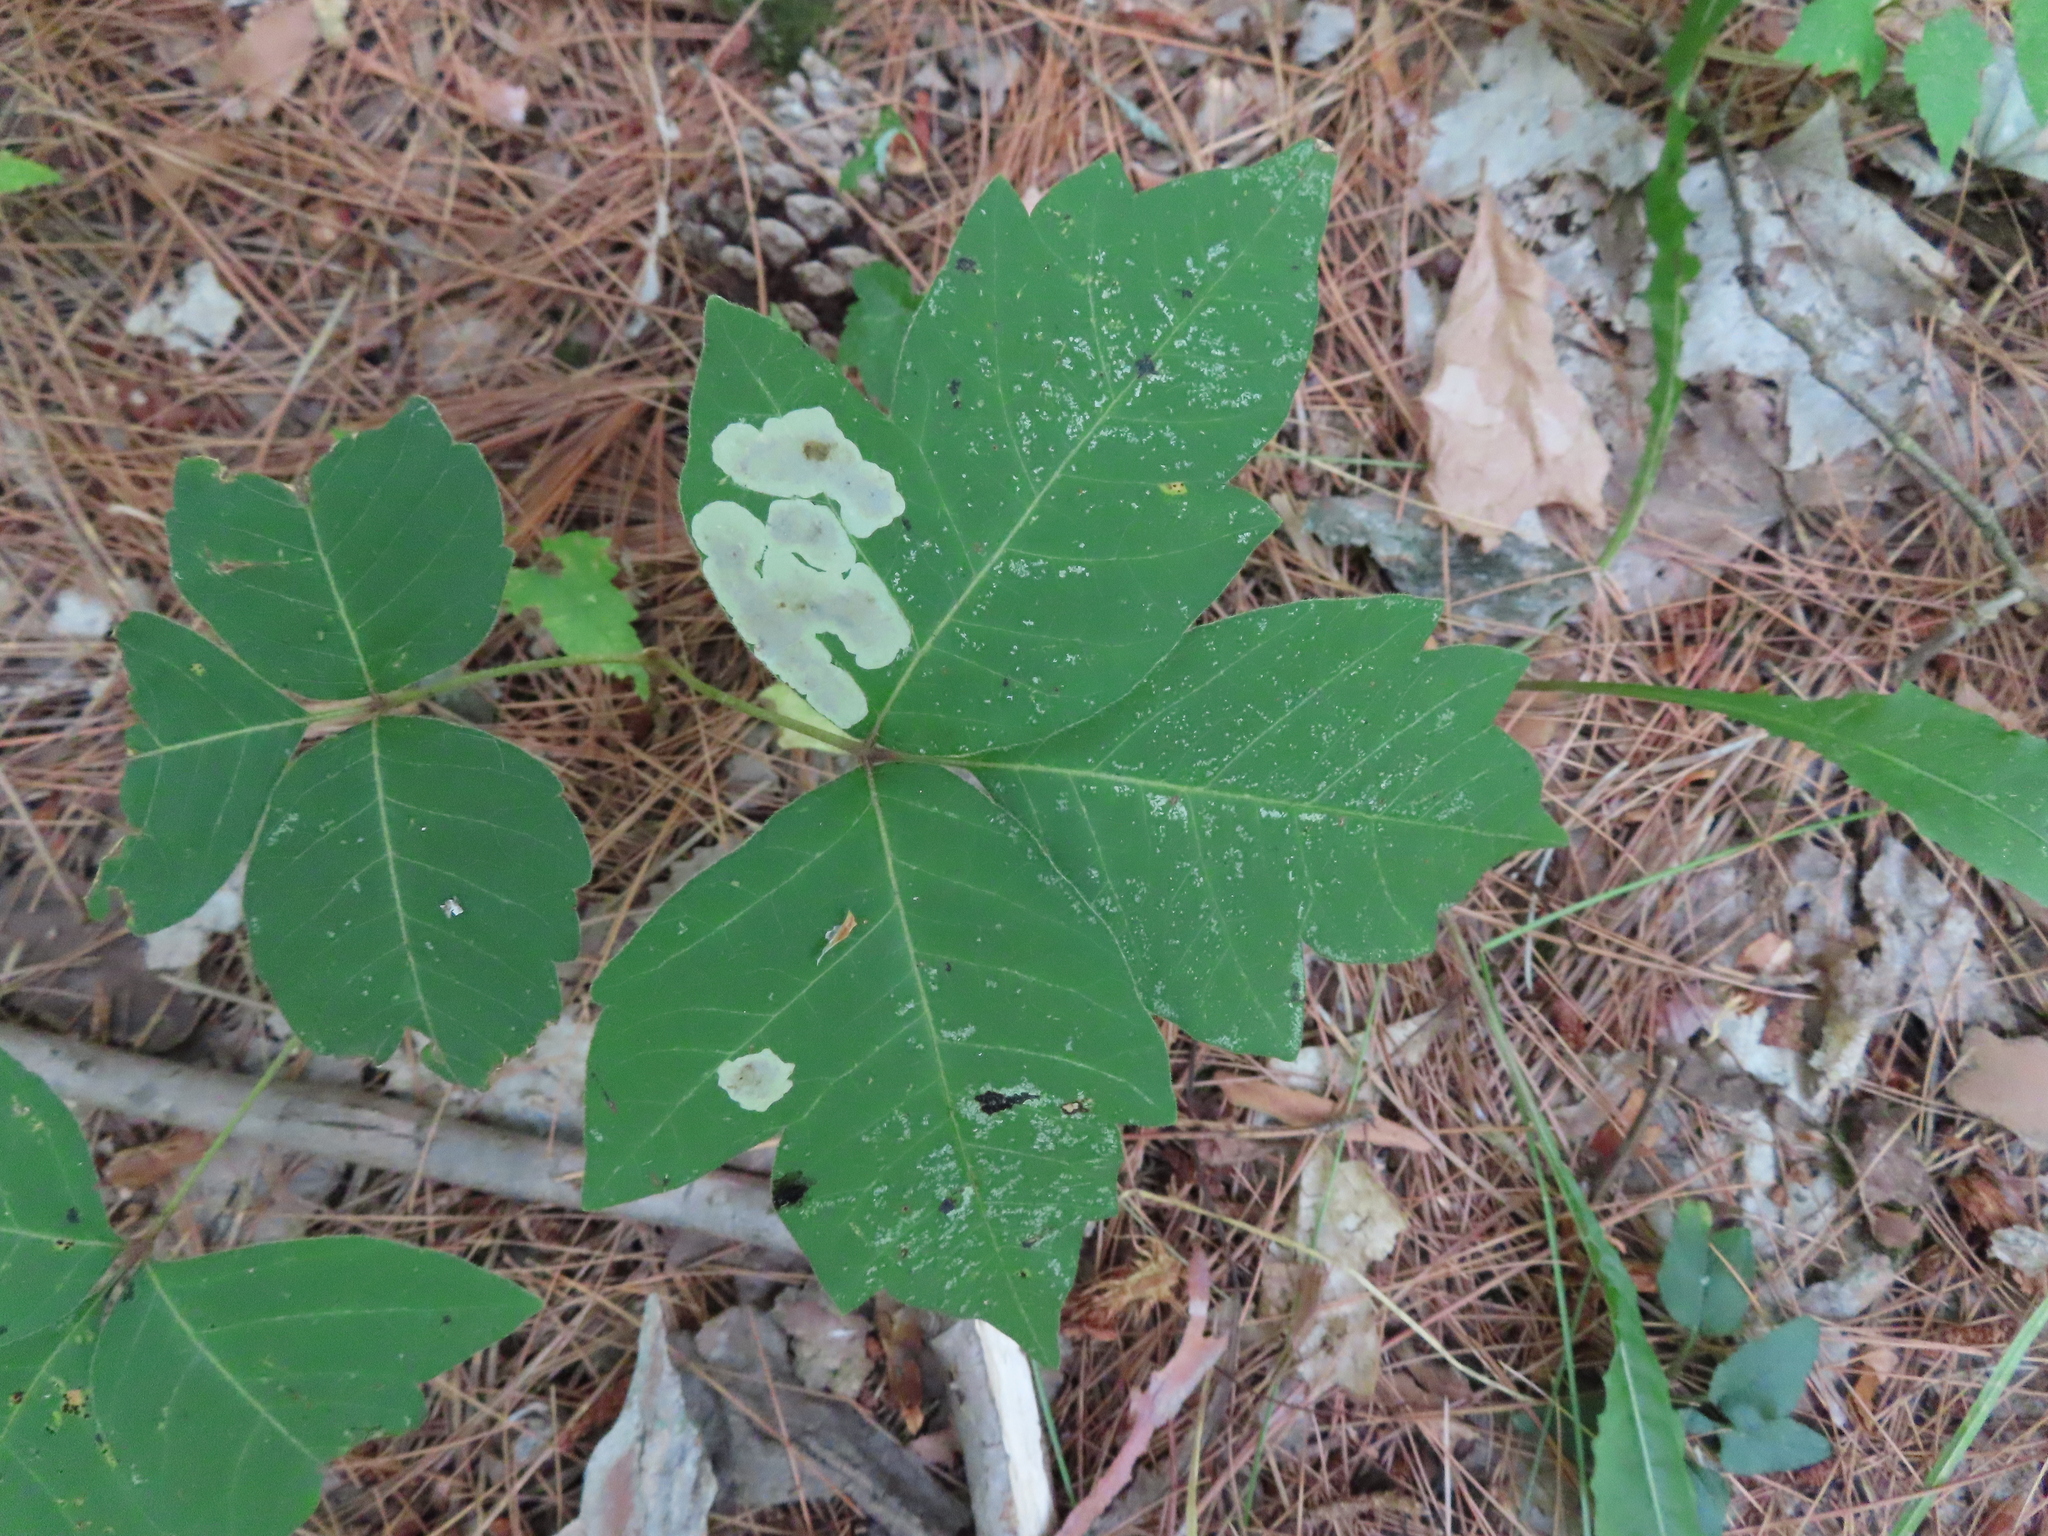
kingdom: Plantae
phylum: Tracheophyta
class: Magnoliopsida
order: Sapindales
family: Anacardiaceae
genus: Toxicodendron
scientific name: Toxicodendron radicans
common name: Poison ivy
